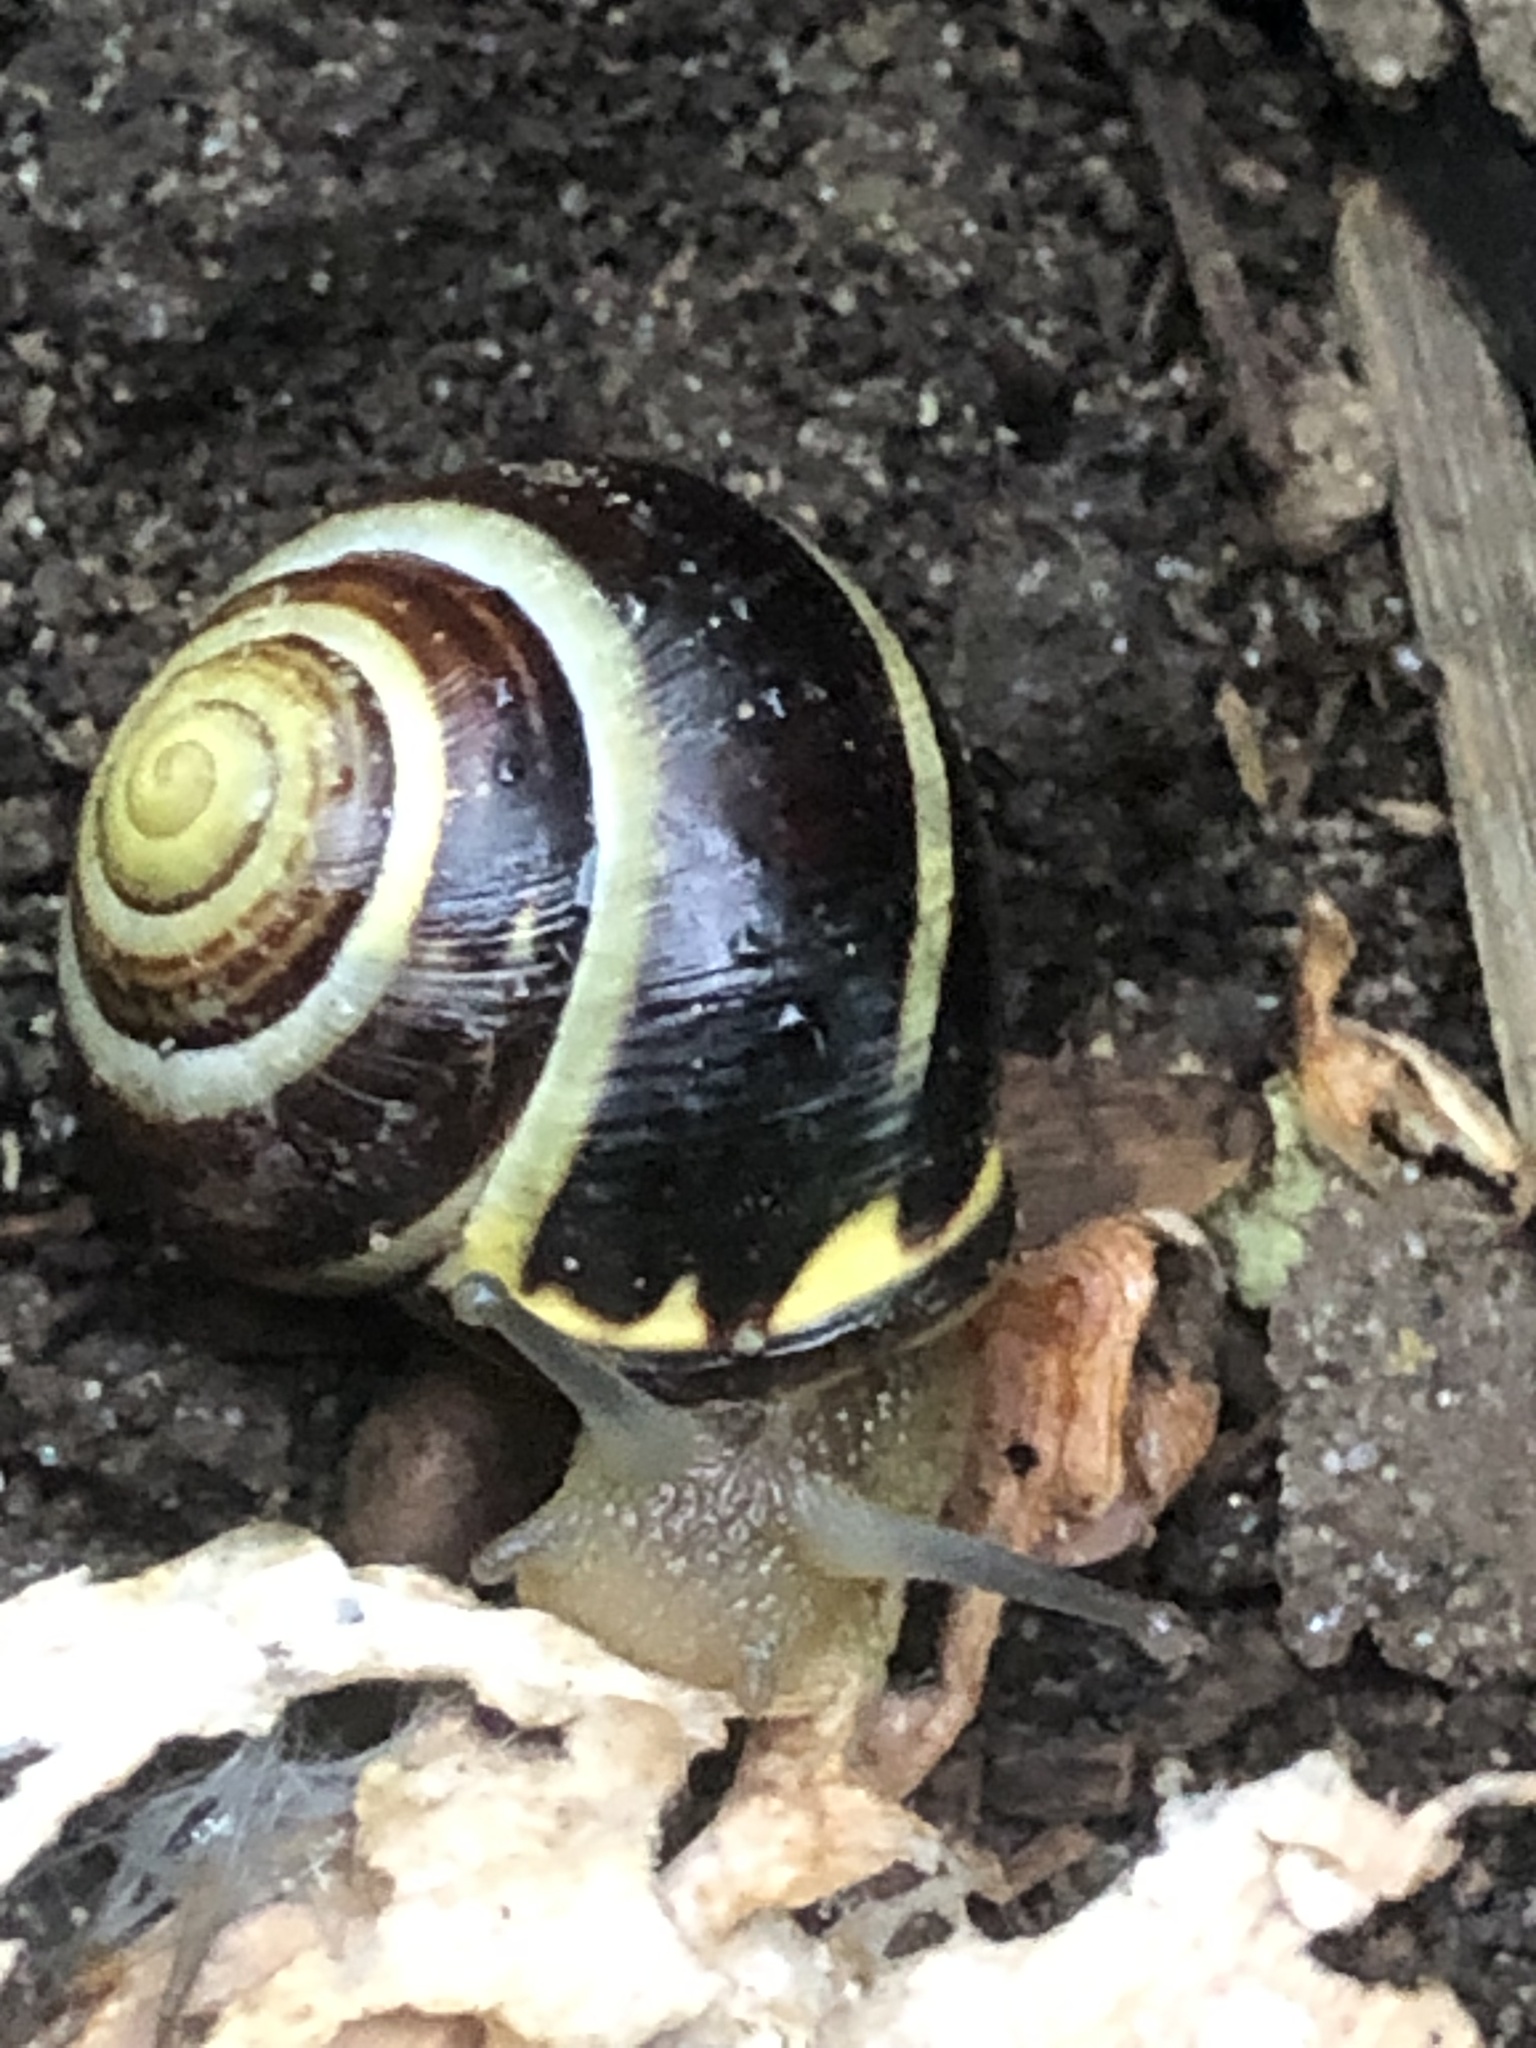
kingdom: Animalia
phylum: Mollusca
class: Gastropoda
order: Stylommatophora
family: Helicidae
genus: Cepaea
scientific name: Cepaea nemoralis
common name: Grovesnail
